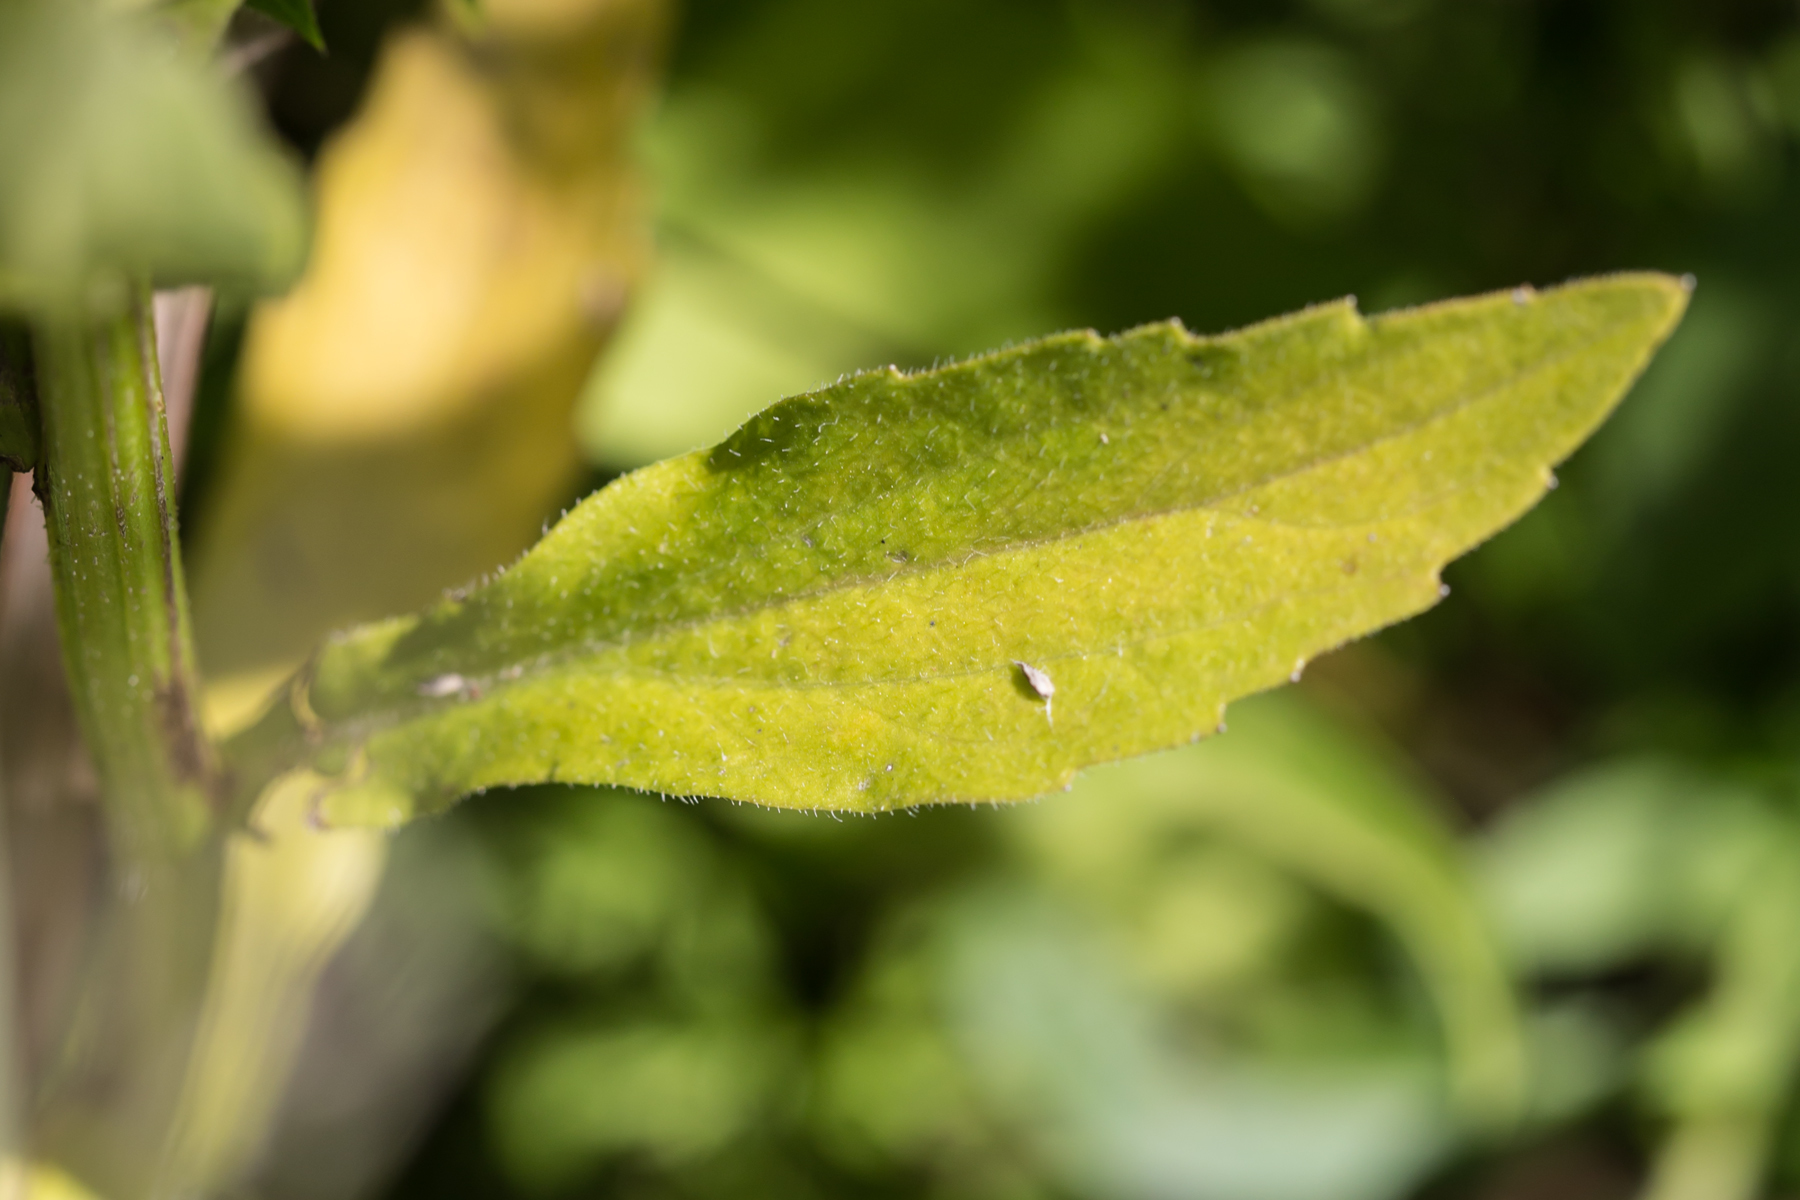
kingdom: Plantae
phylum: Tracheophyta
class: Magnoliopsida
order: Asterales
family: Asteraceae
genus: Erigeron
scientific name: Erigeron annuus
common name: Tall fleabane
